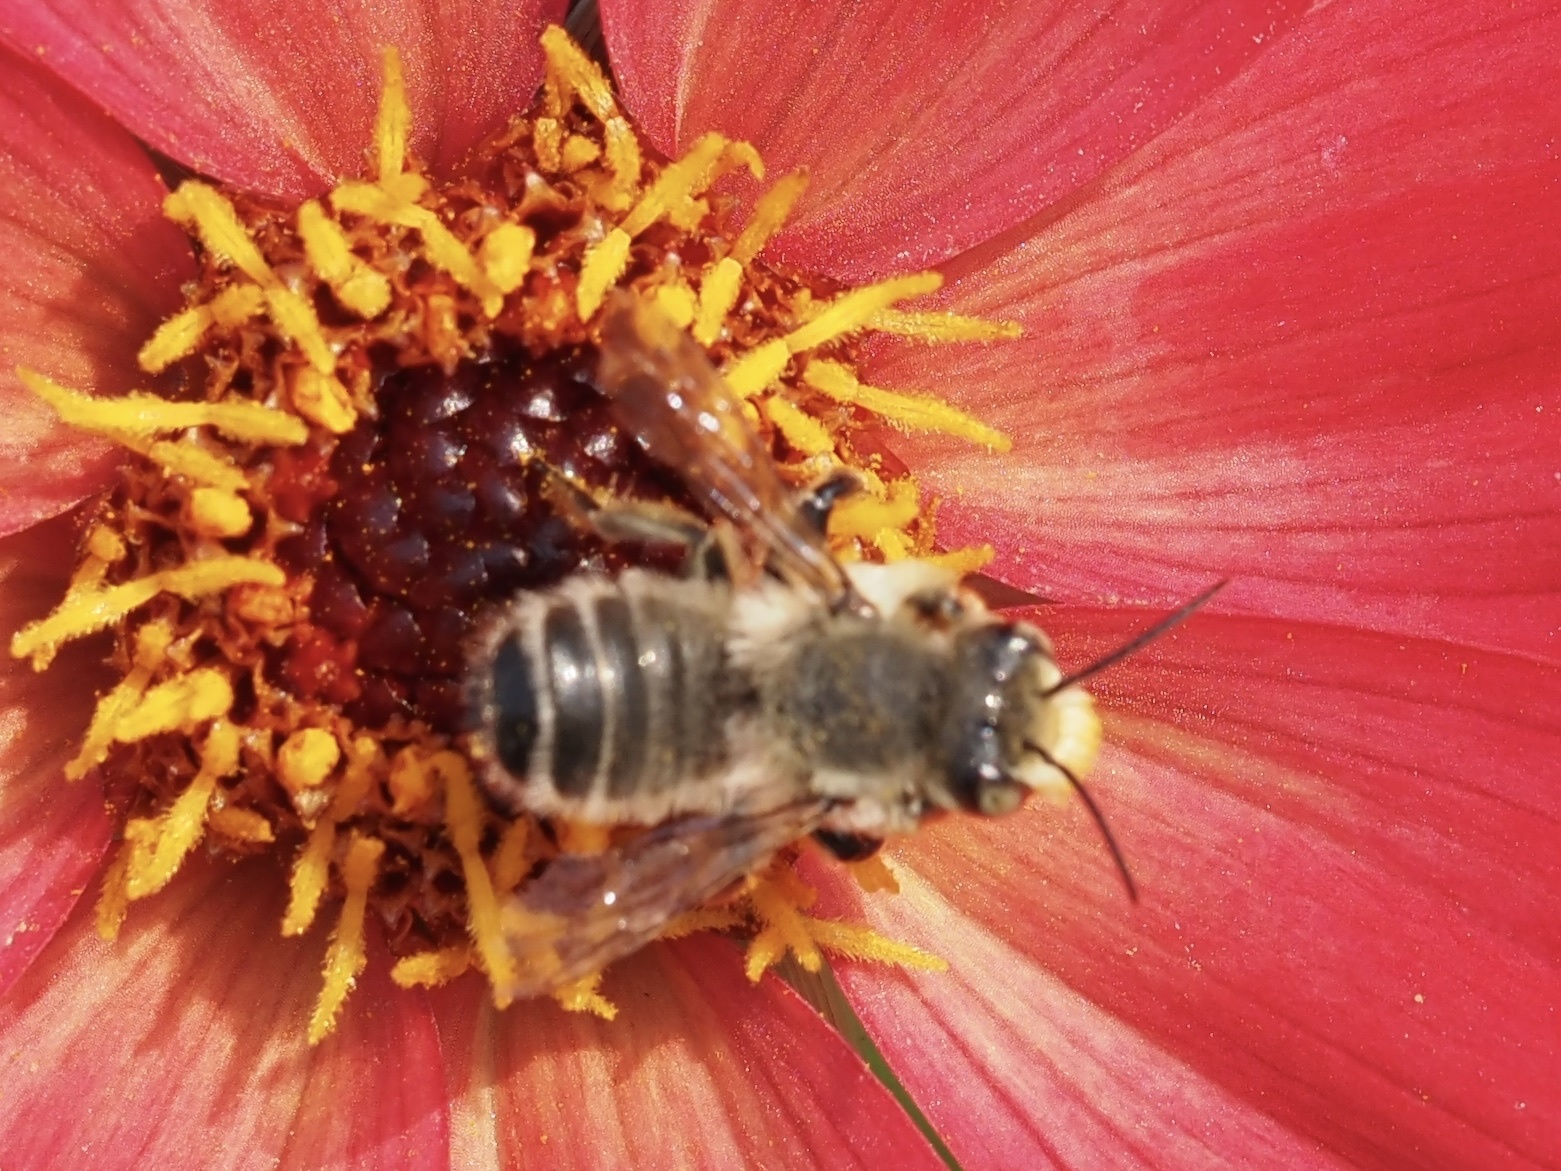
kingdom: Animalia
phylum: Arthropoda
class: Insecta
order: Hymenoptera
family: Megachilidae
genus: Megachile
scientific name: Megachile perihirta
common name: Western leafcutter
